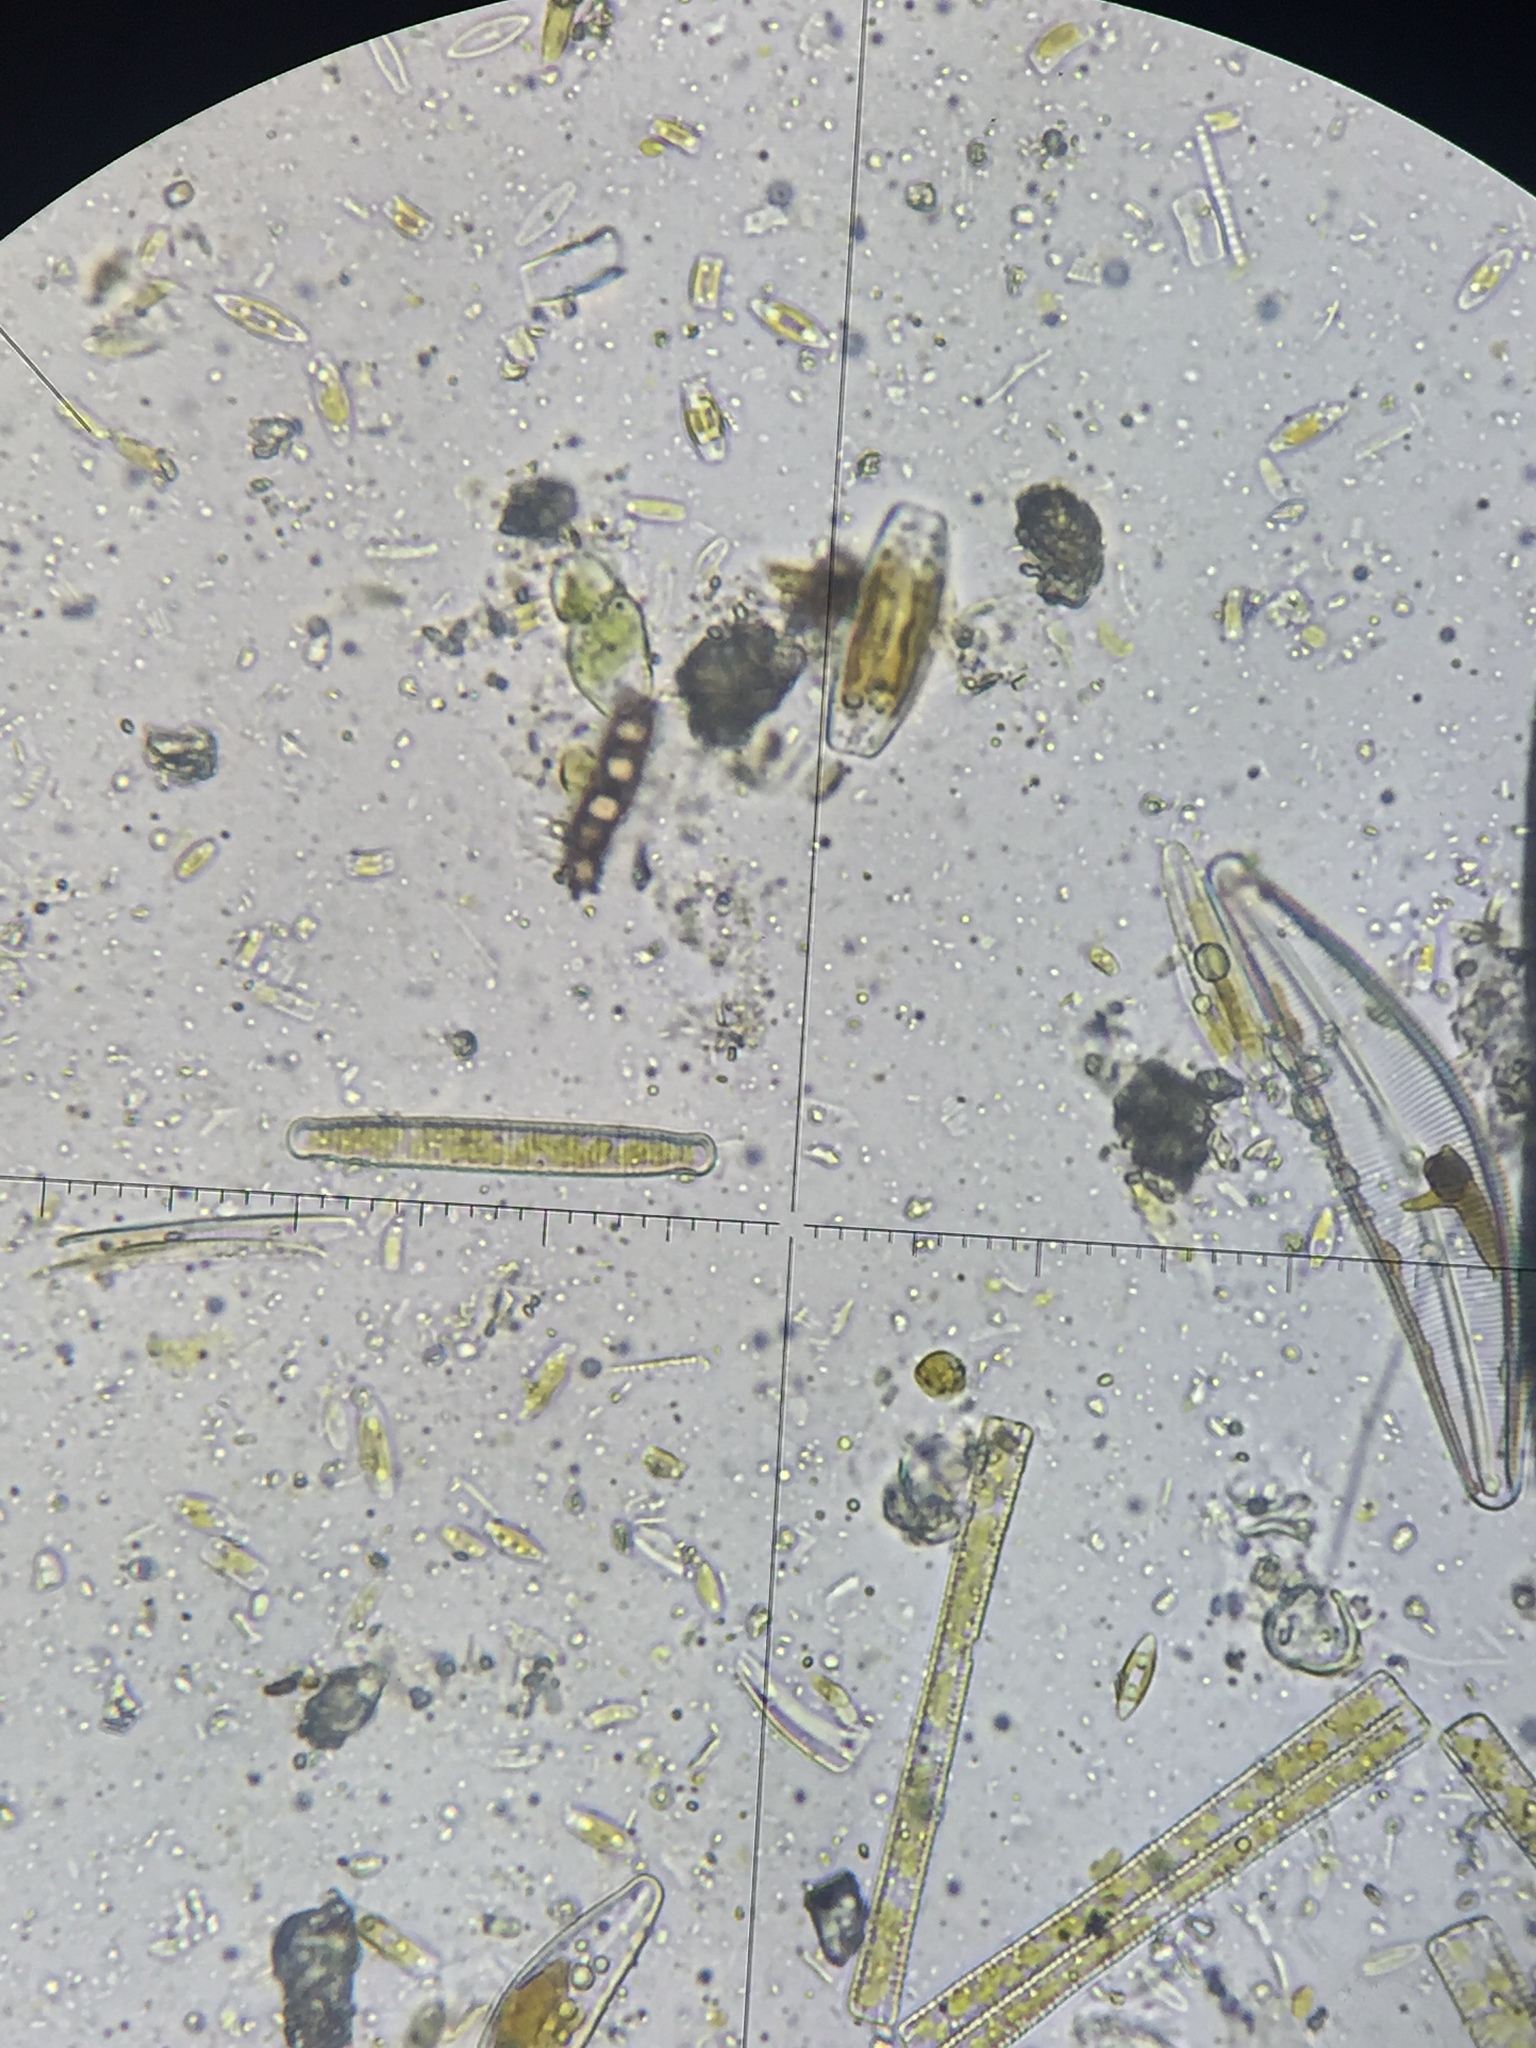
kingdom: Chromista
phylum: Ochrophyta
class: Bacillariophyceae
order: Fragilariales
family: Fragilariaceae
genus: Diatoma
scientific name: Diatoma grande
